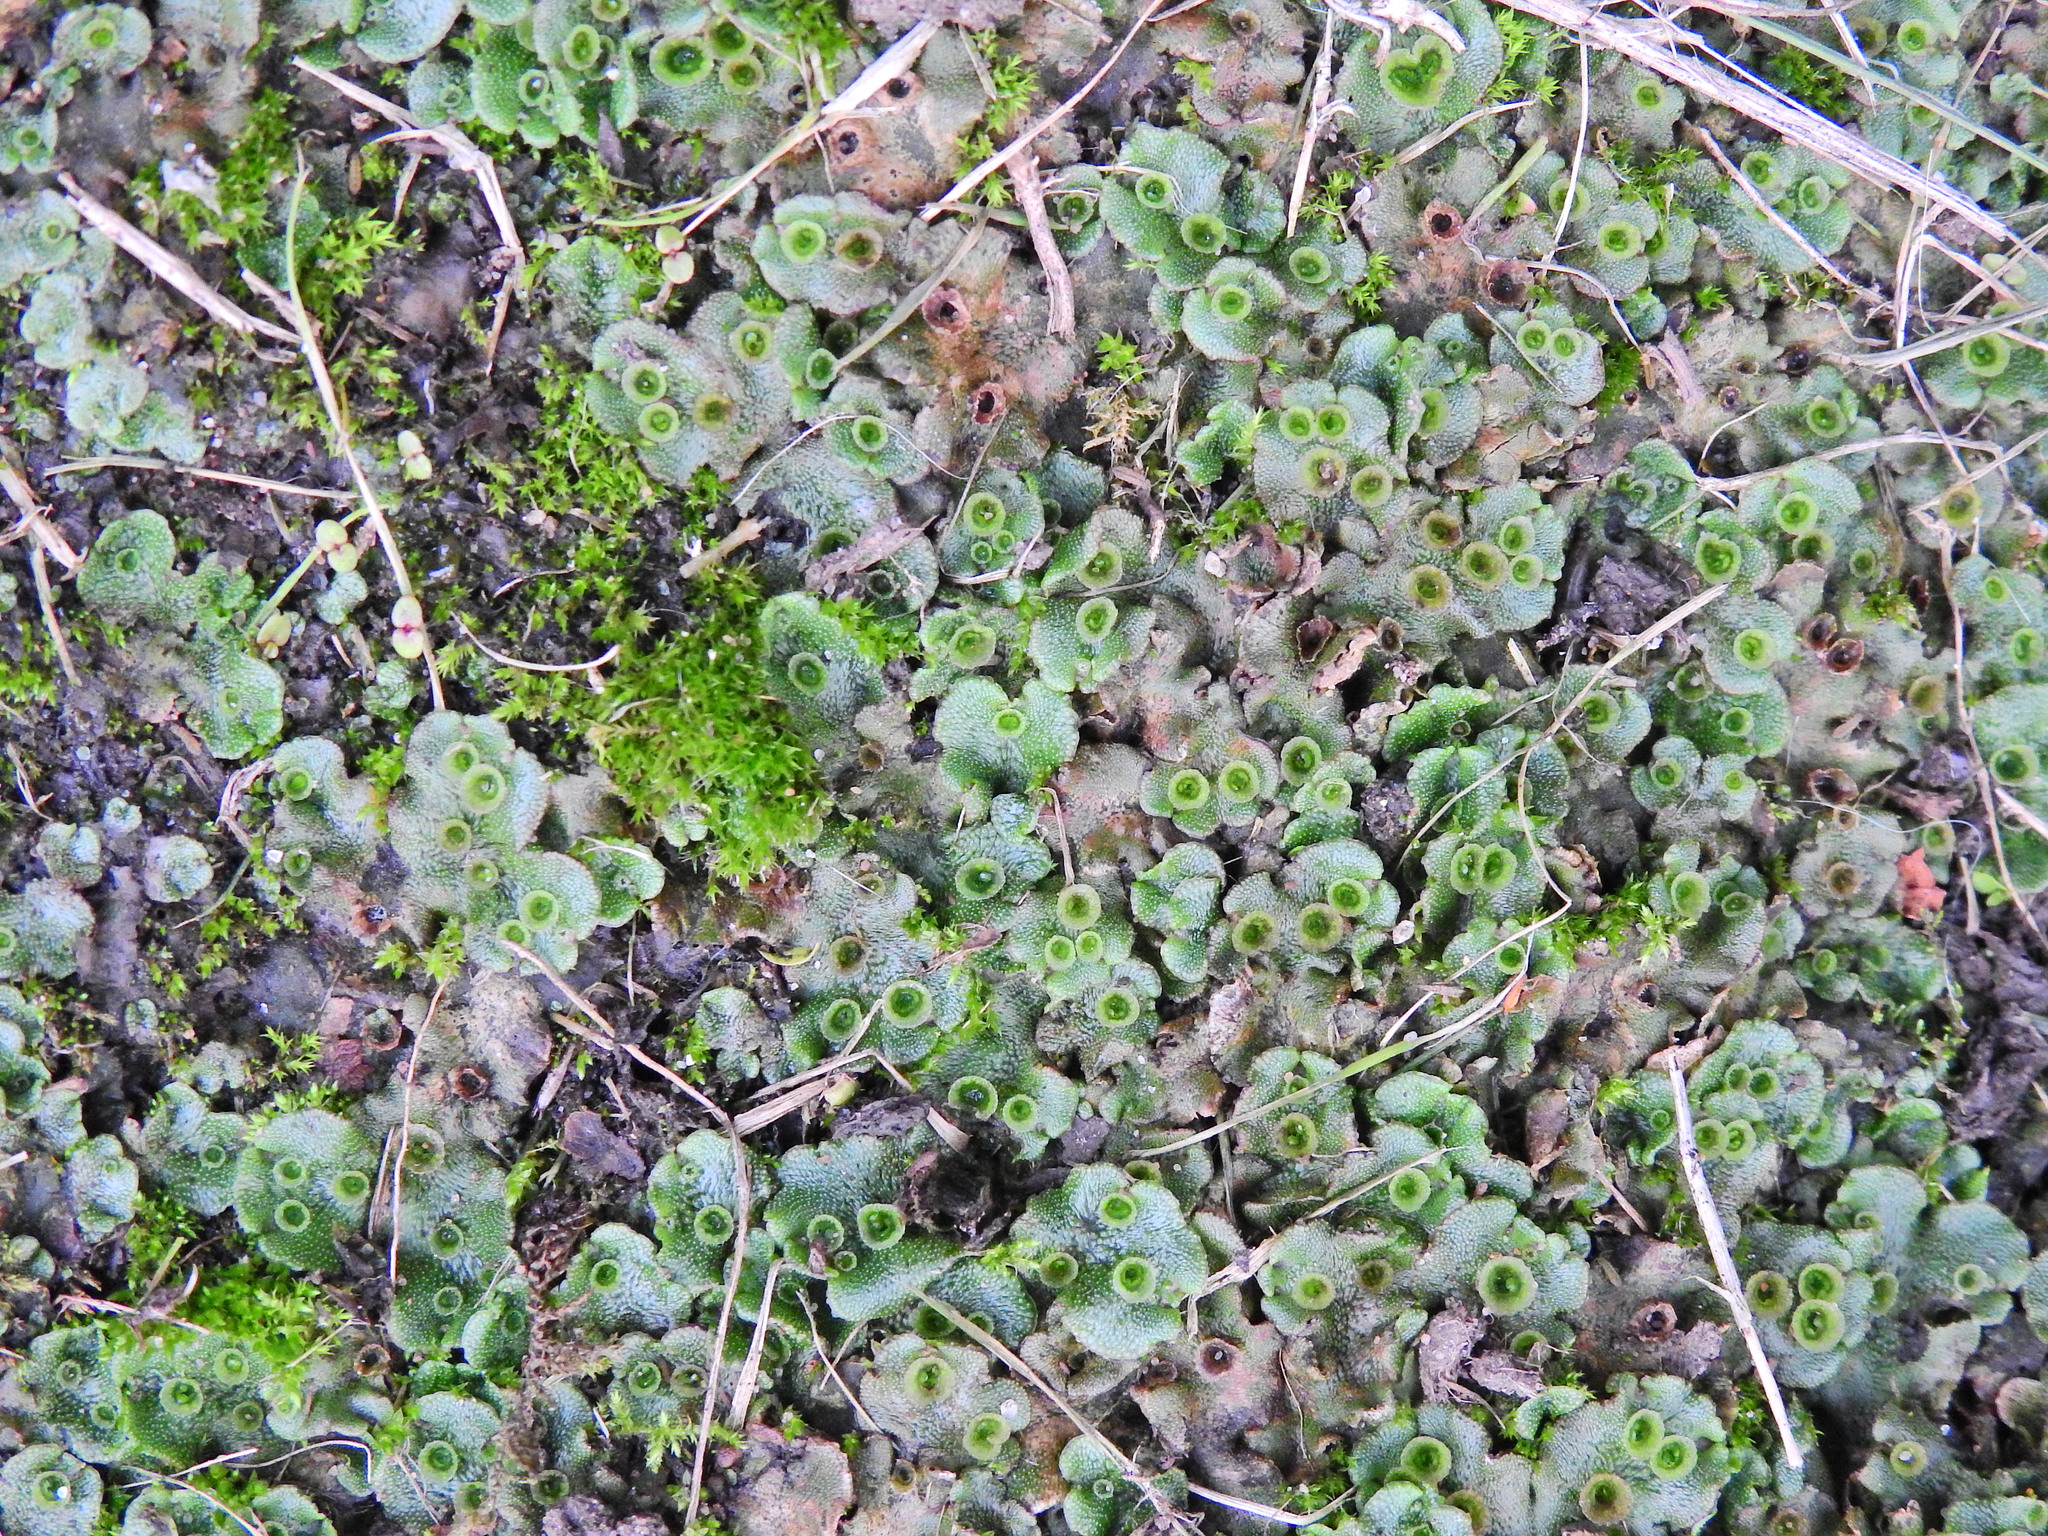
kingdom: Plantae
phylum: Marchantiophyta
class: Marchantiopsida
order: Marchantiales
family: Marchantiaceae
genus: Marchantia
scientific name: Marchantia polymorpha
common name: Common liverwort
